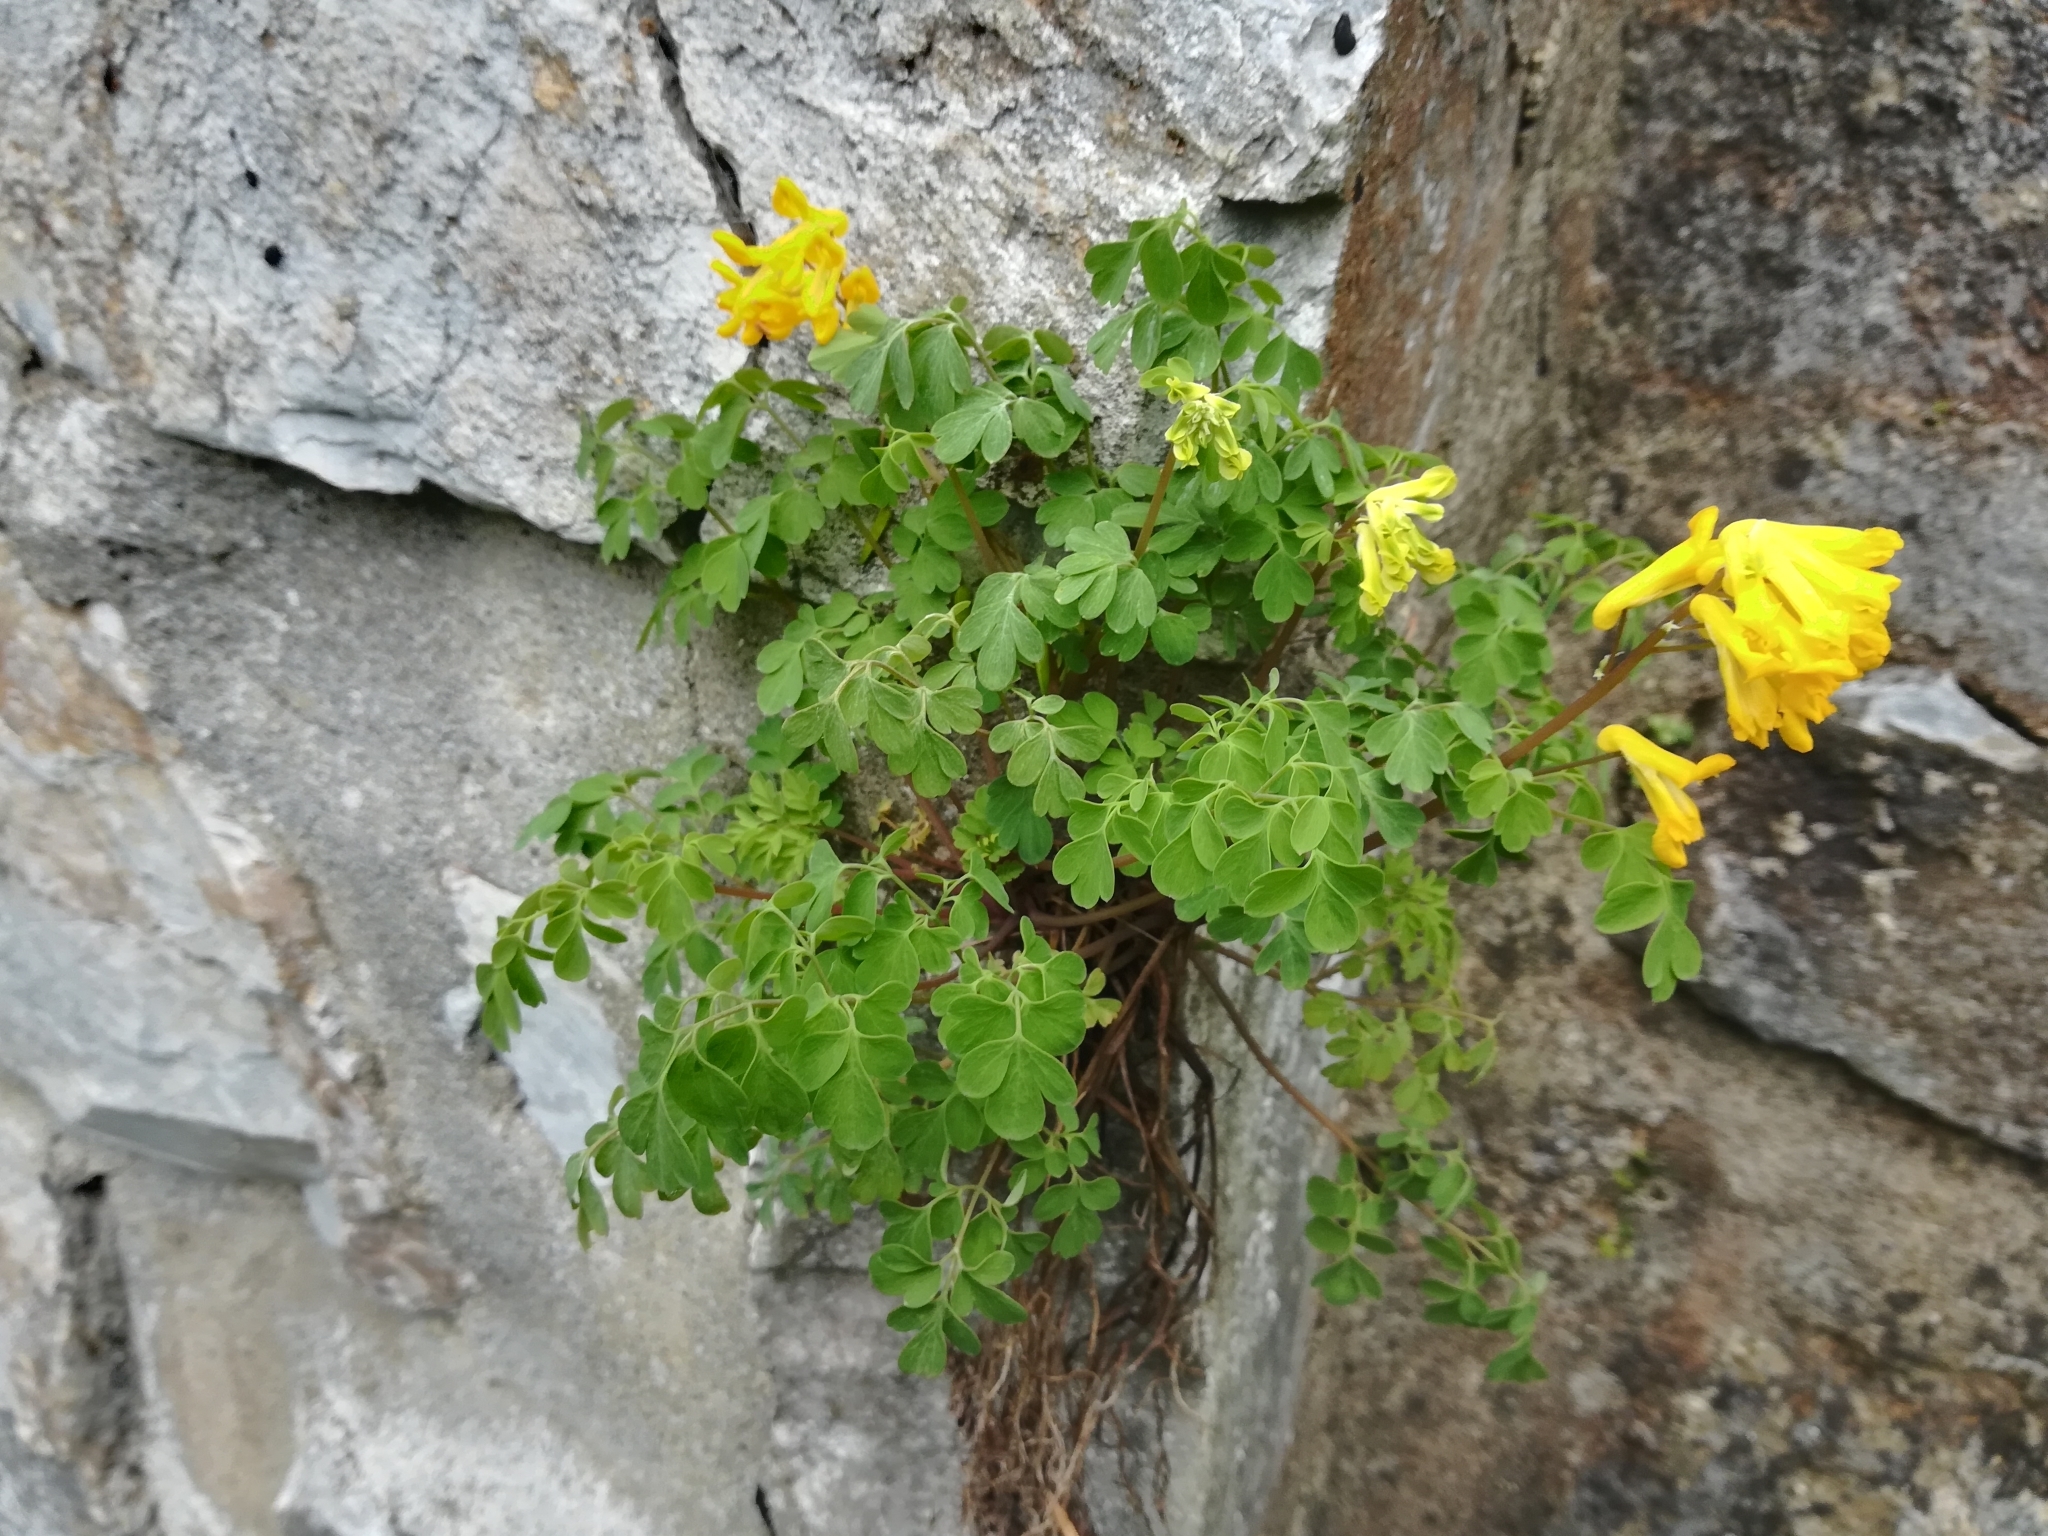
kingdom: Plantae
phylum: Tracheophyta
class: Magnoliopsida
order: Ranunculales
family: Papaveraceae
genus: Pseudofumaria
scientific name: Pseudofumaria lutea
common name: Yellow corydalis
